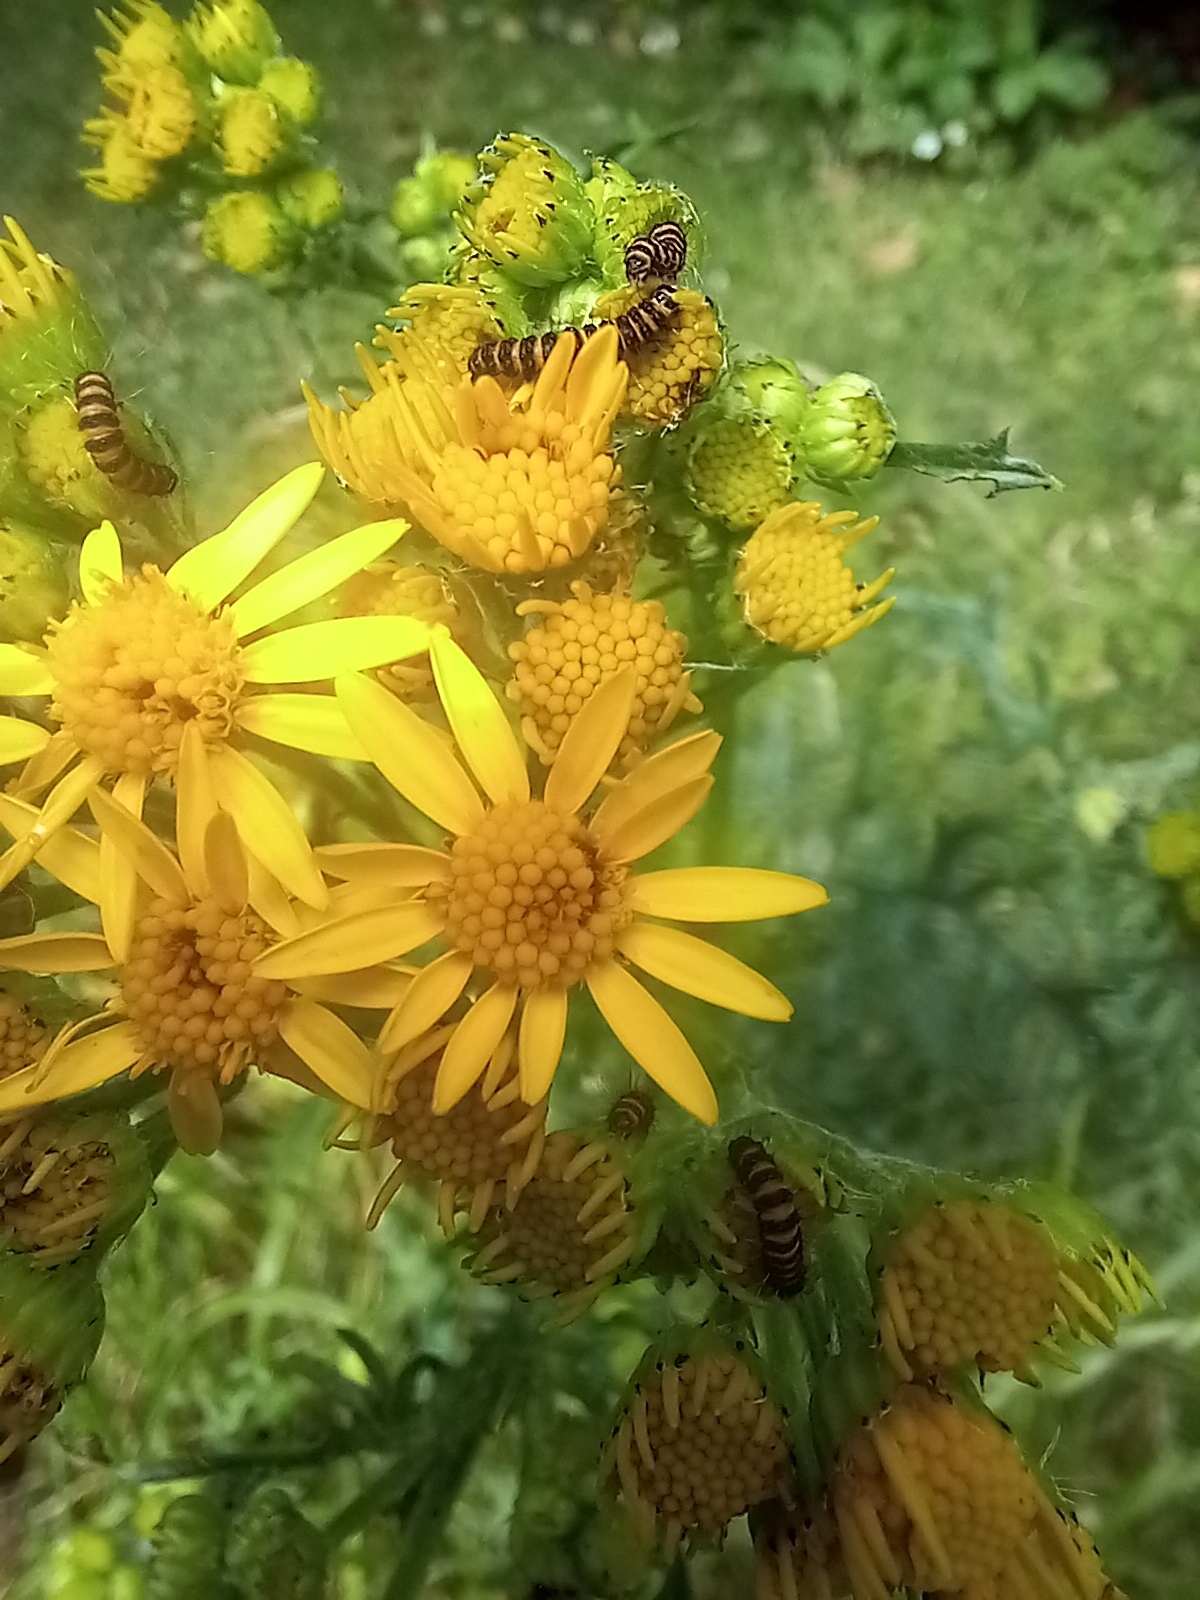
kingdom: Animalia
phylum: Arthropoda
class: Insecta
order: Lepidoptera
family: Erebidae
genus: Tyria
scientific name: Tyria jacobaeae
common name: Cinnabar
